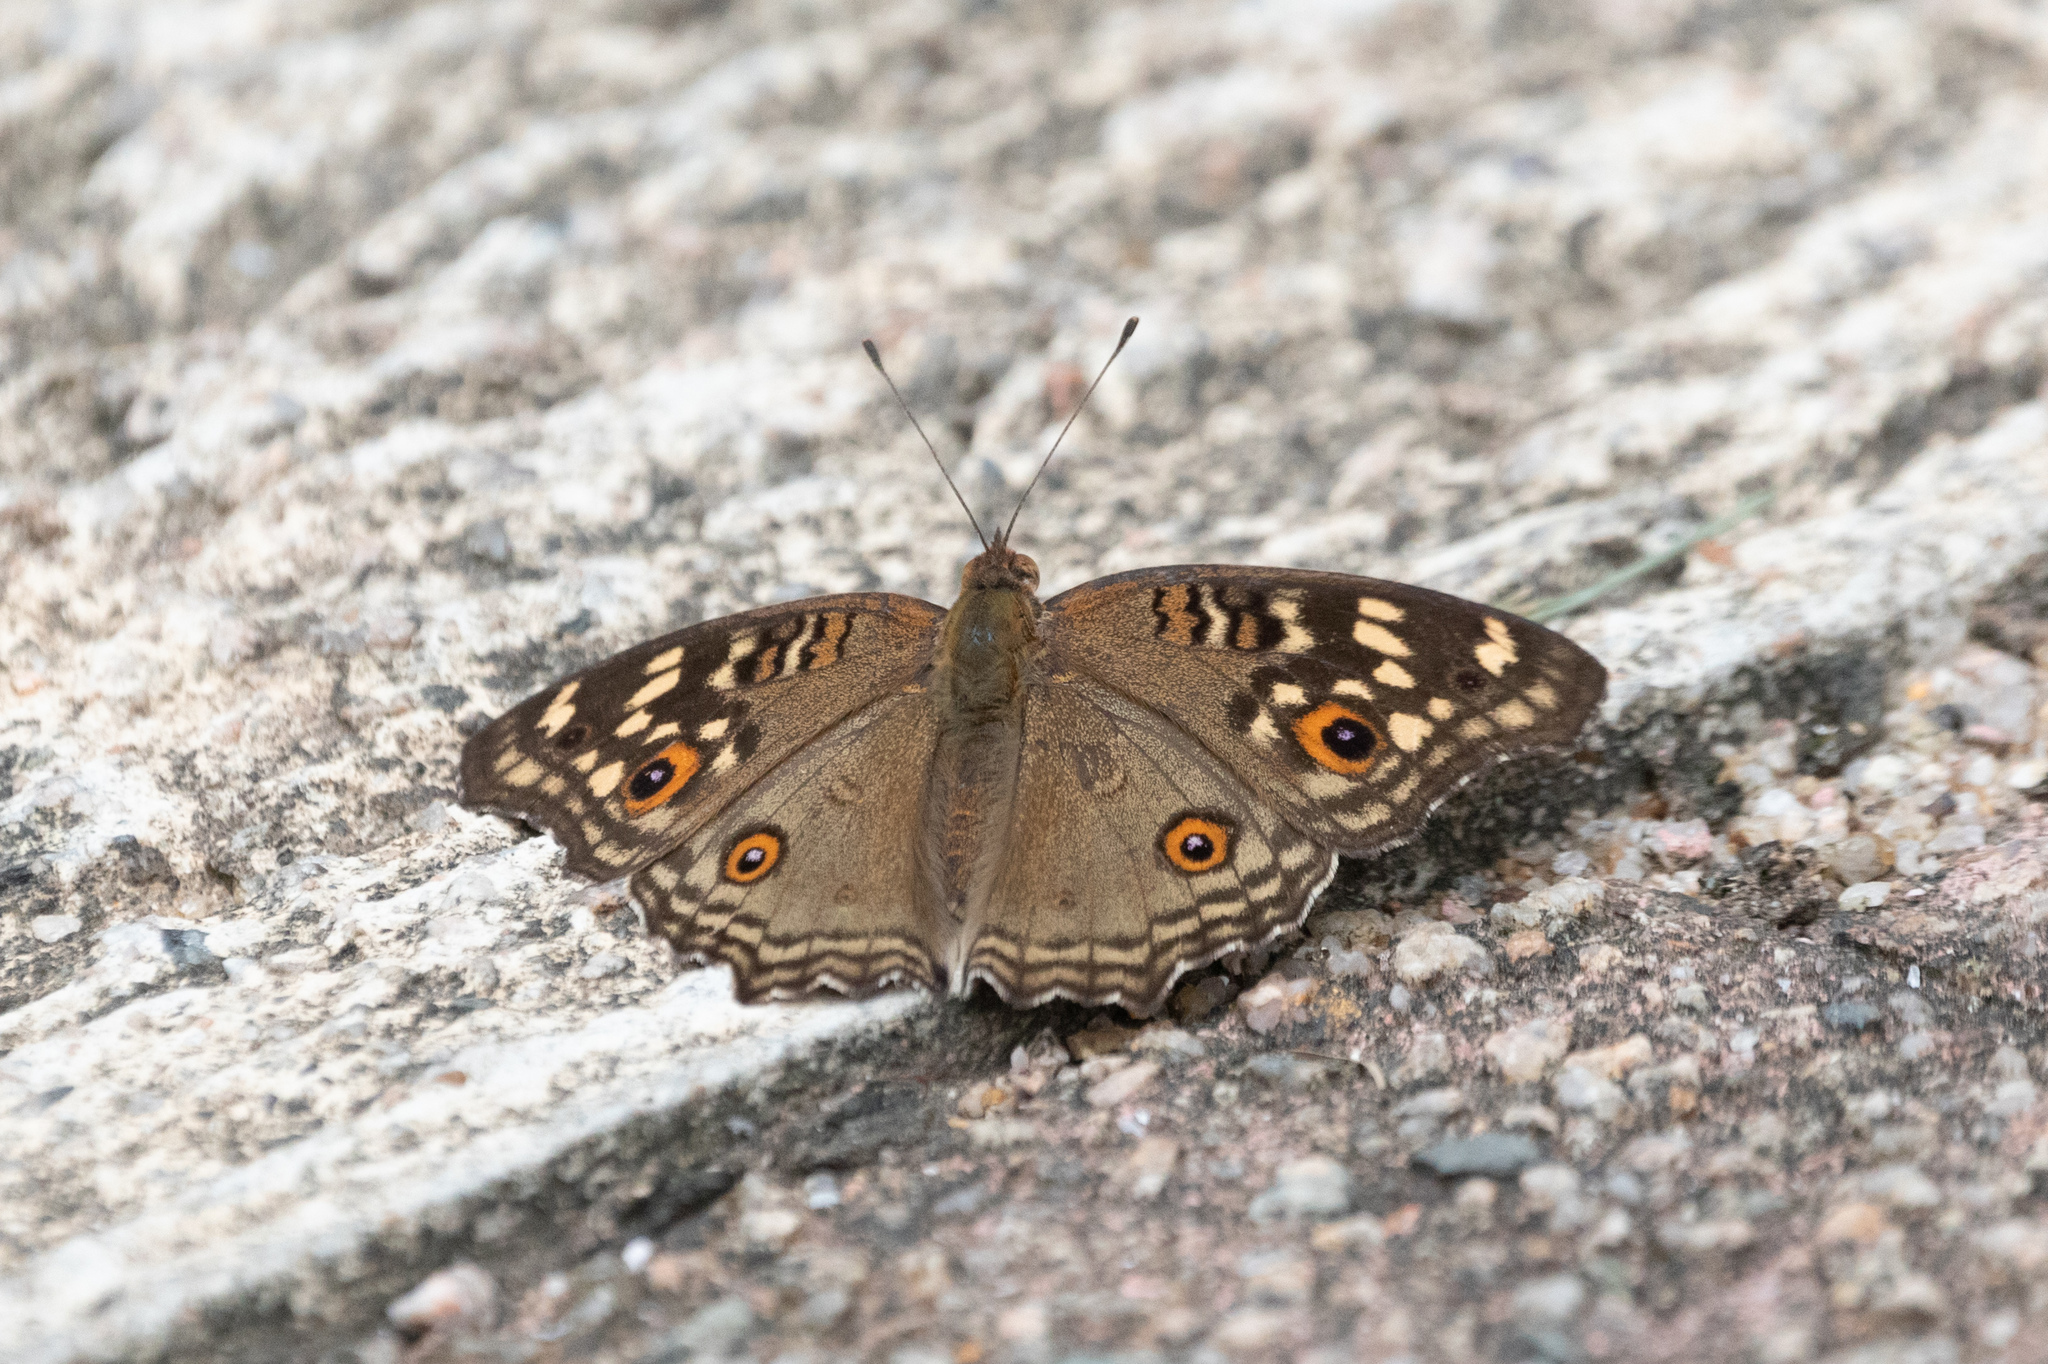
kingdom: Animalia
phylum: Arthropoda
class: Insecta
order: Lepidoptera
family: Nymphalidae
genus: Junonia
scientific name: Junonia lemonias
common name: Lemon pansy
